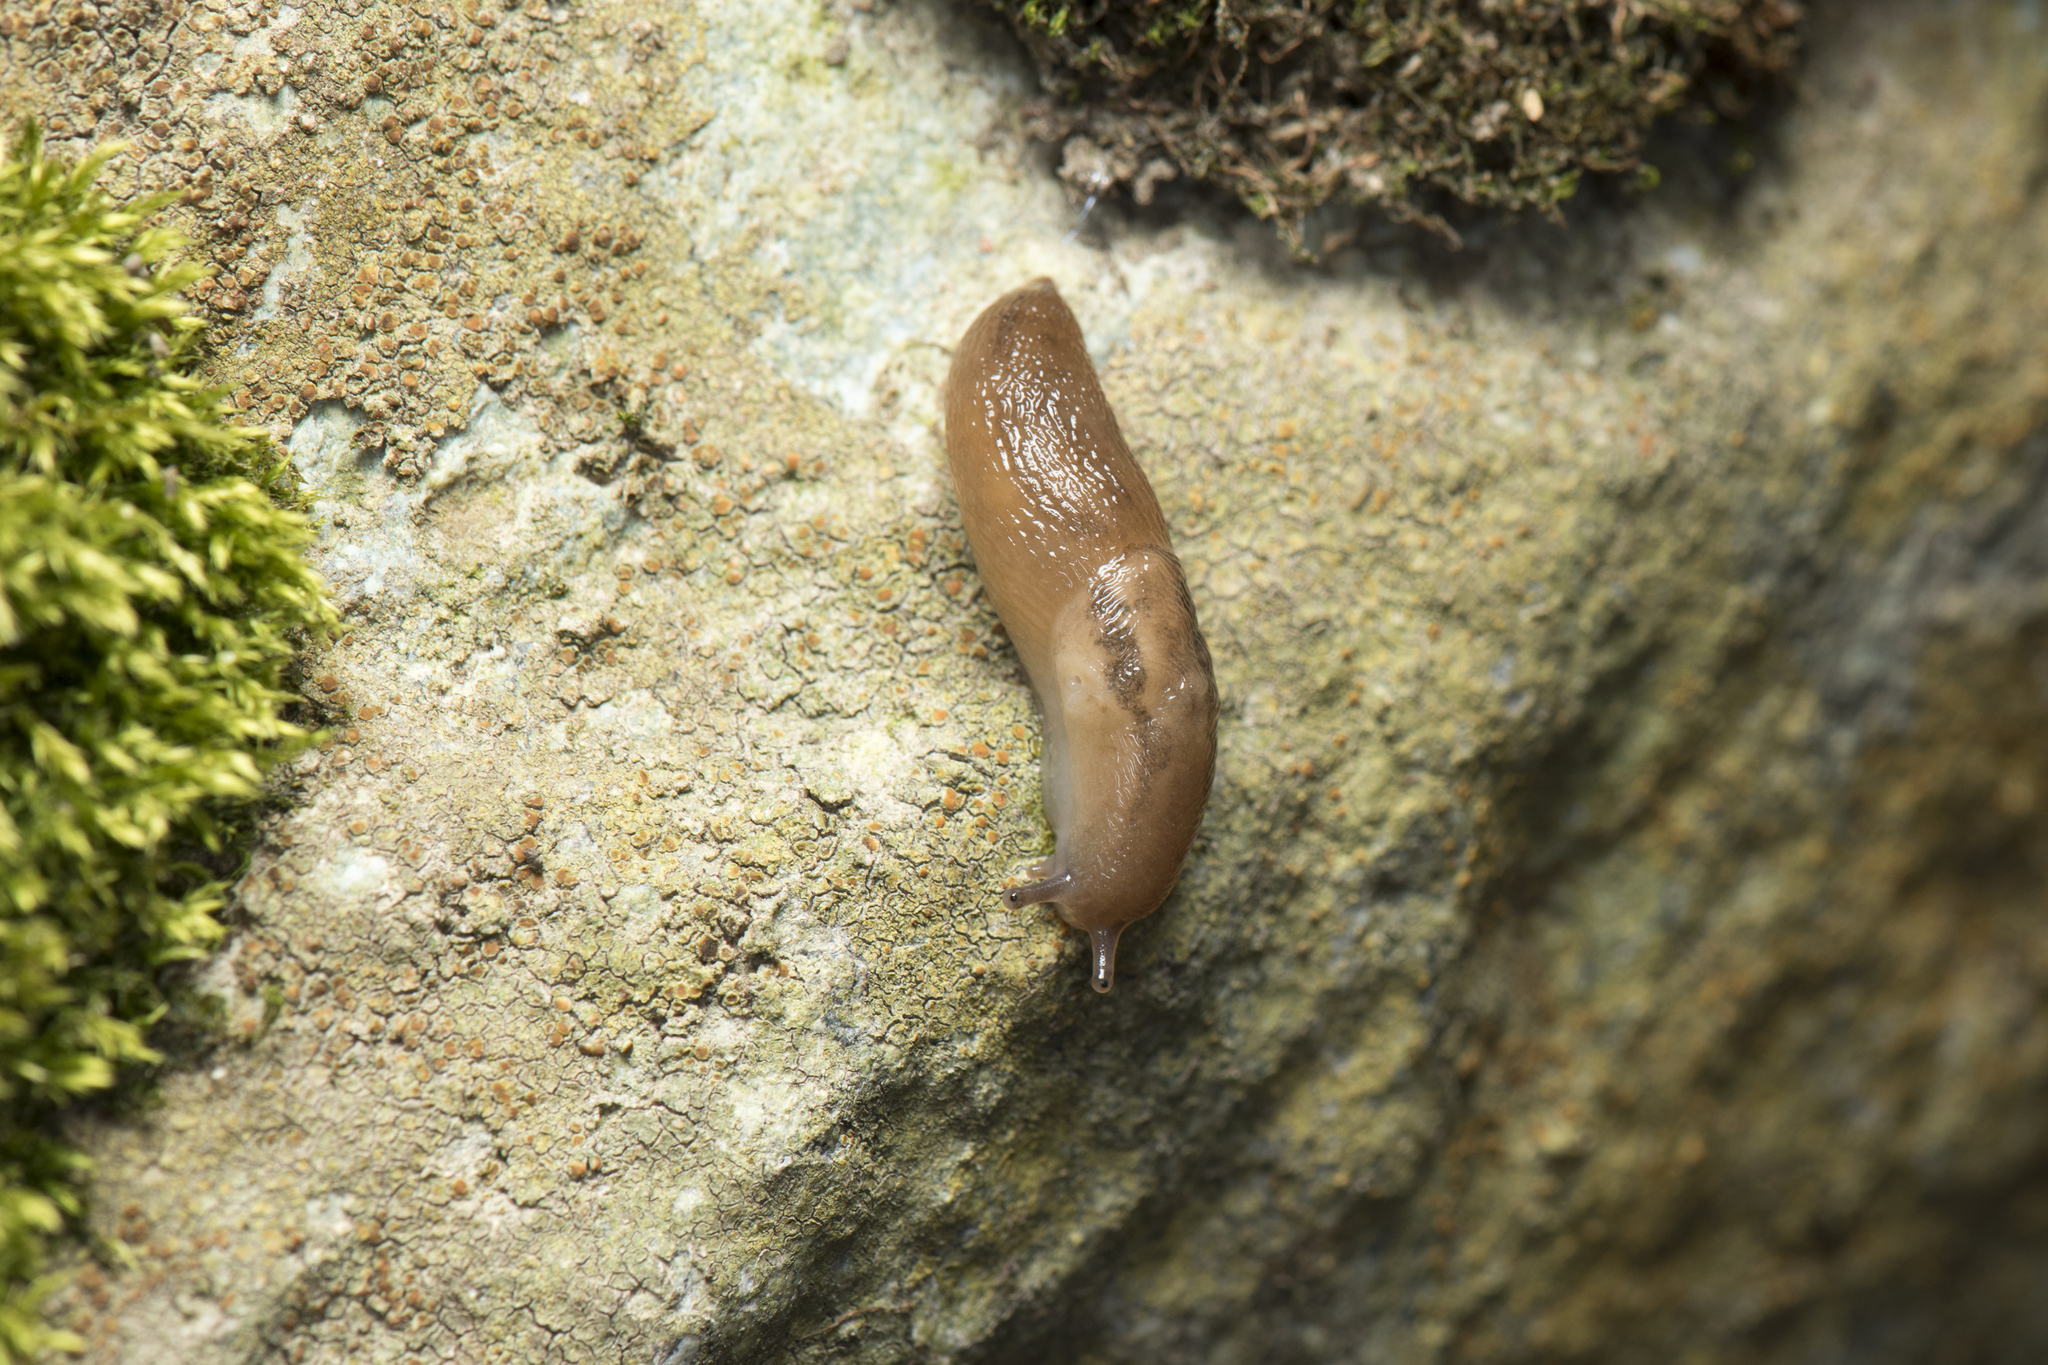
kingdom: Animalia
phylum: Mollusca
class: Gastropoda
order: Stylommatophora
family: Limacidae
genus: Ambigolimax
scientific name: Ambigolimax valentianus
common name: Greenhouse slug
